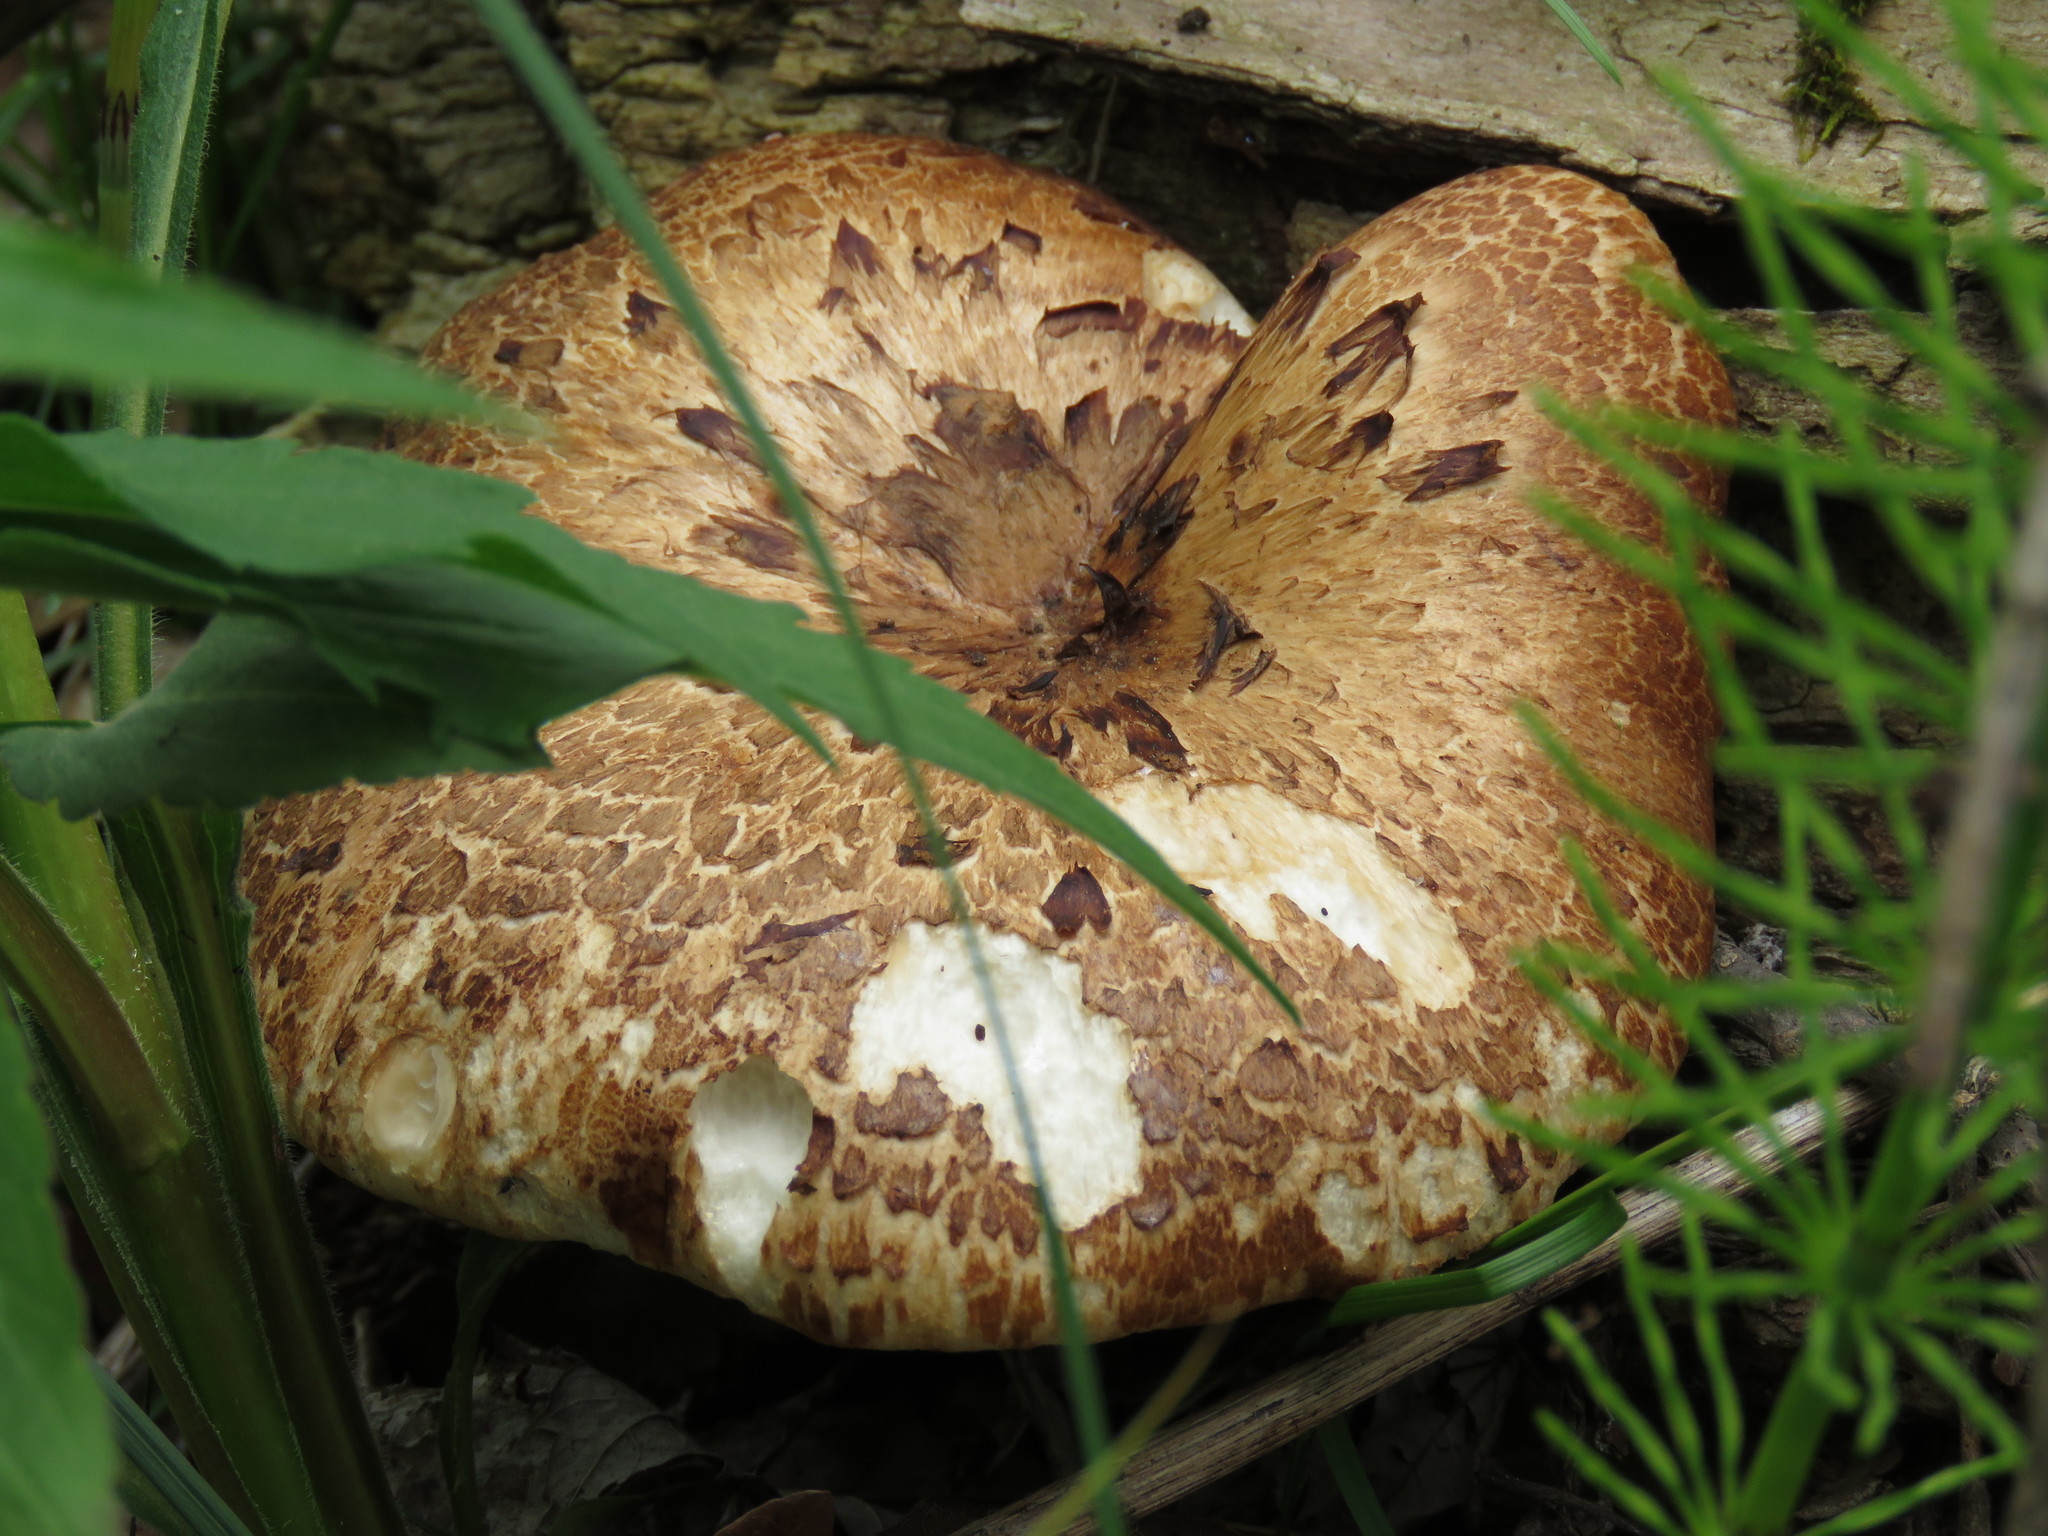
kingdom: Fungi
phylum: Basidiomycota
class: Agaricomycetes
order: Polyporales
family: Polyporaceae
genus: Cerioporus
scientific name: Cerioporus squamosus
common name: Dryad's saddle
